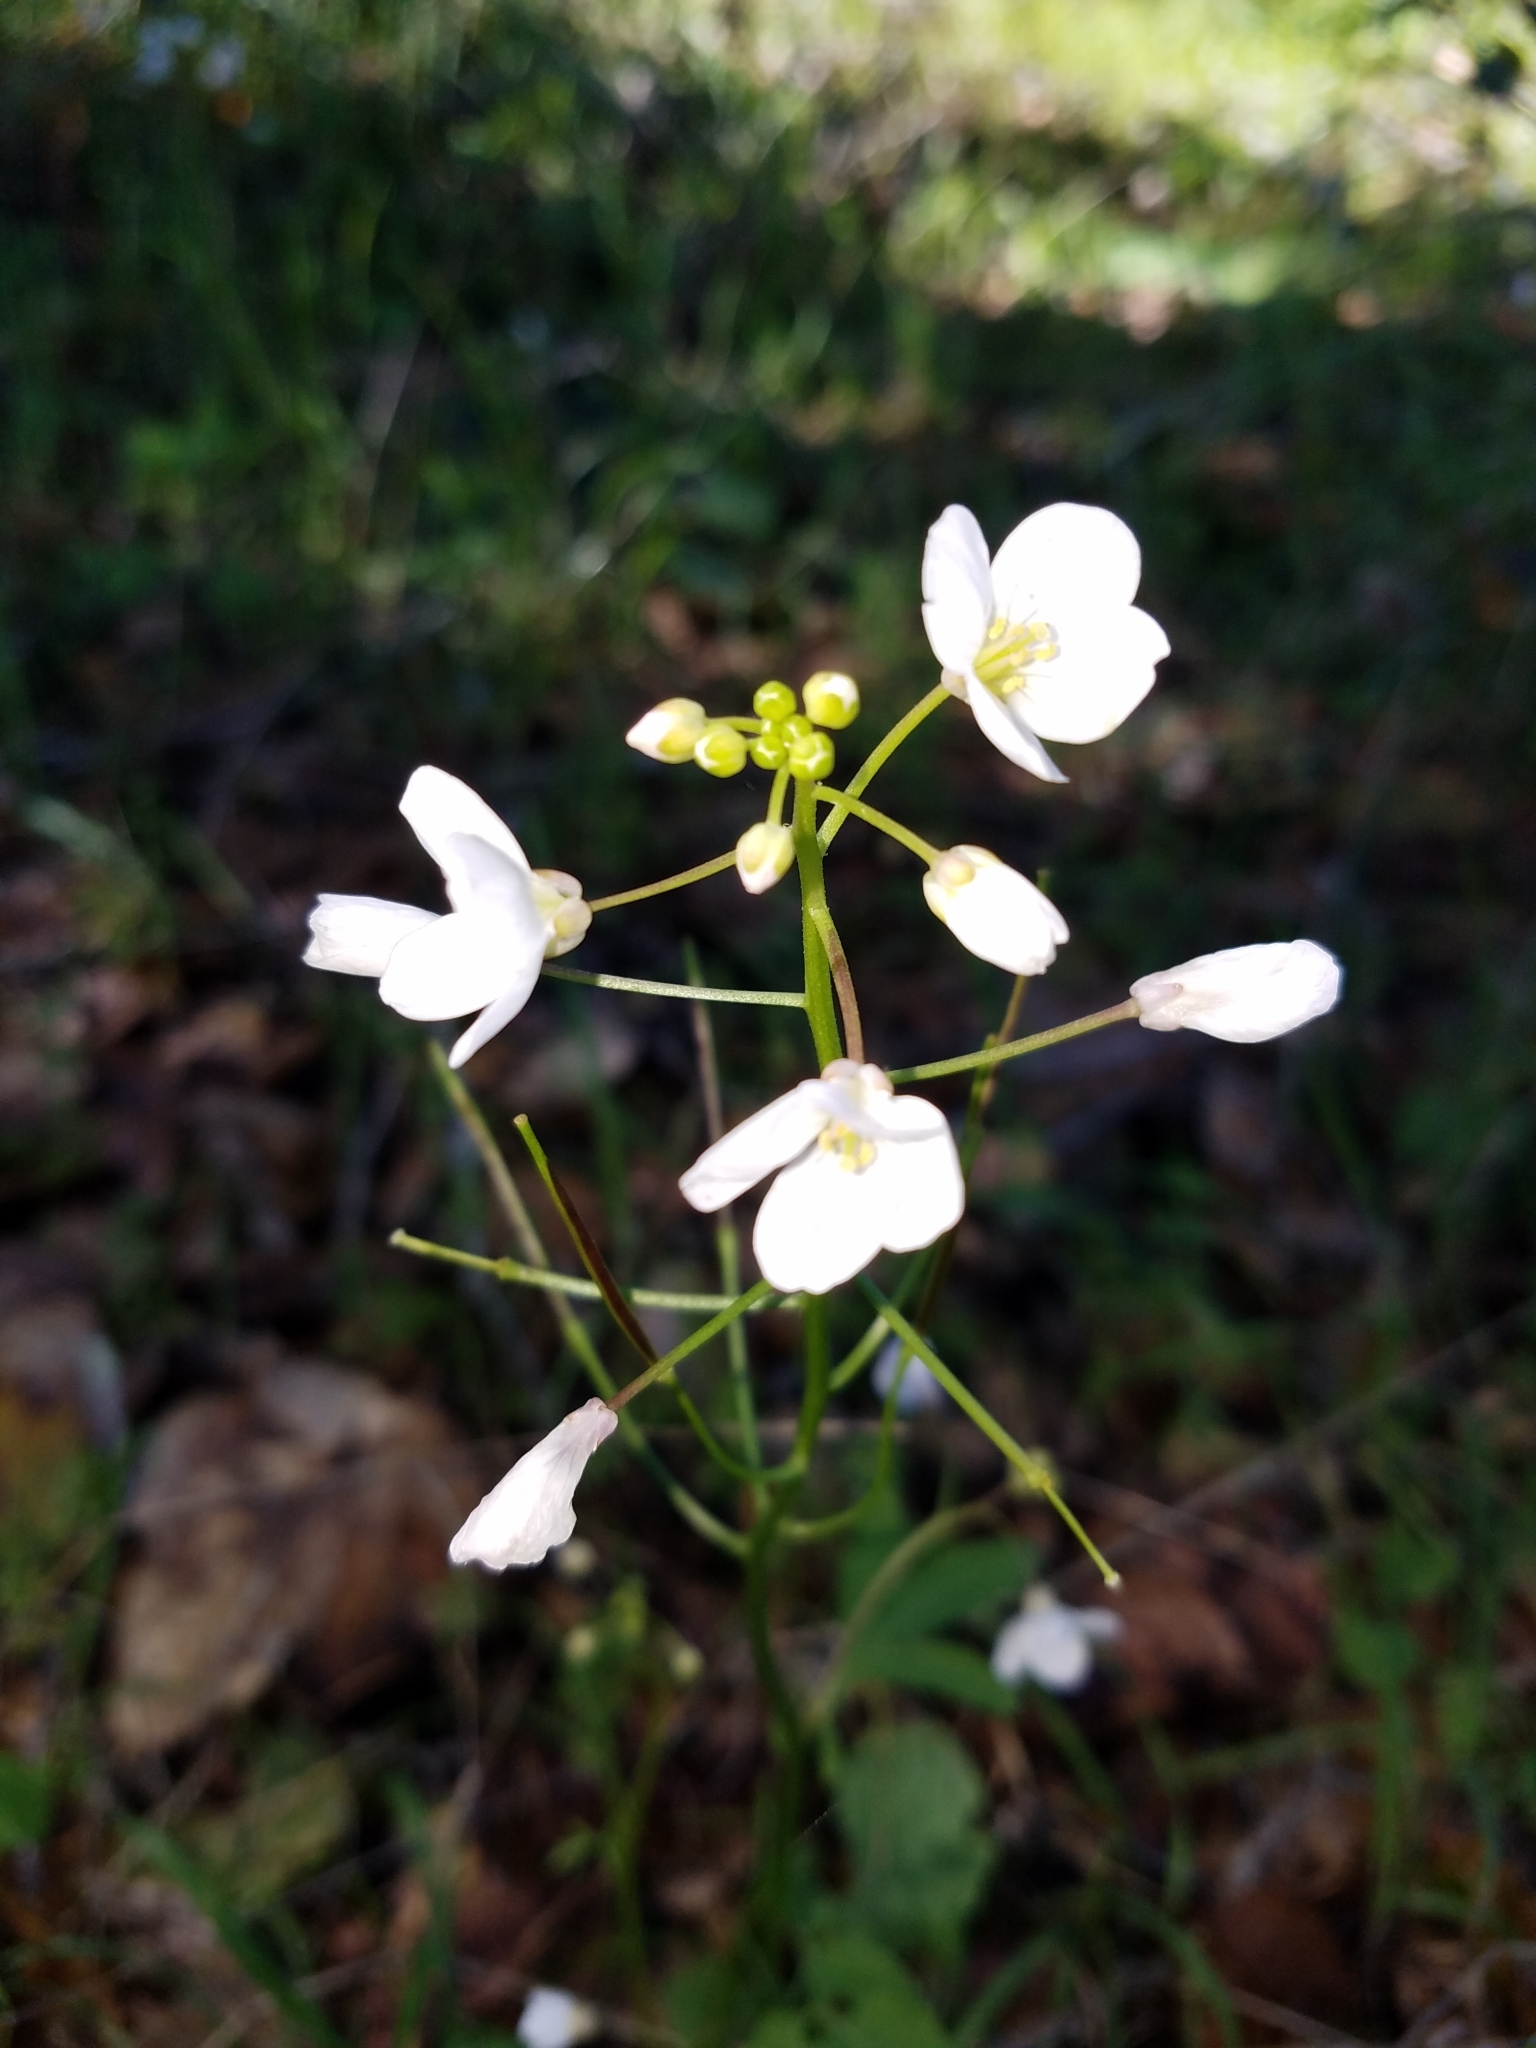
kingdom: Plantae
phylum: Tracheophyta
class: Magnoliopsida
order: Brassicales
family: Brassicaceae
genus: Cardamine
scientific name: Cardamine californica
